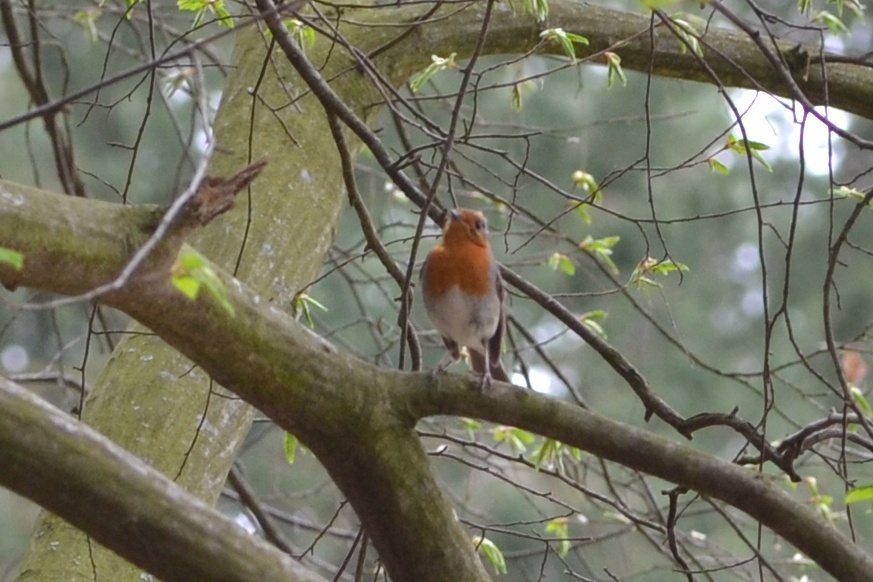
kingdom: Animalia
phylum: Chordata
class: Aves
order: Passeriformes
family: Muscicapidae
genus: Erithacus
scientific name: Erithacus rubecula
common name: European robin
